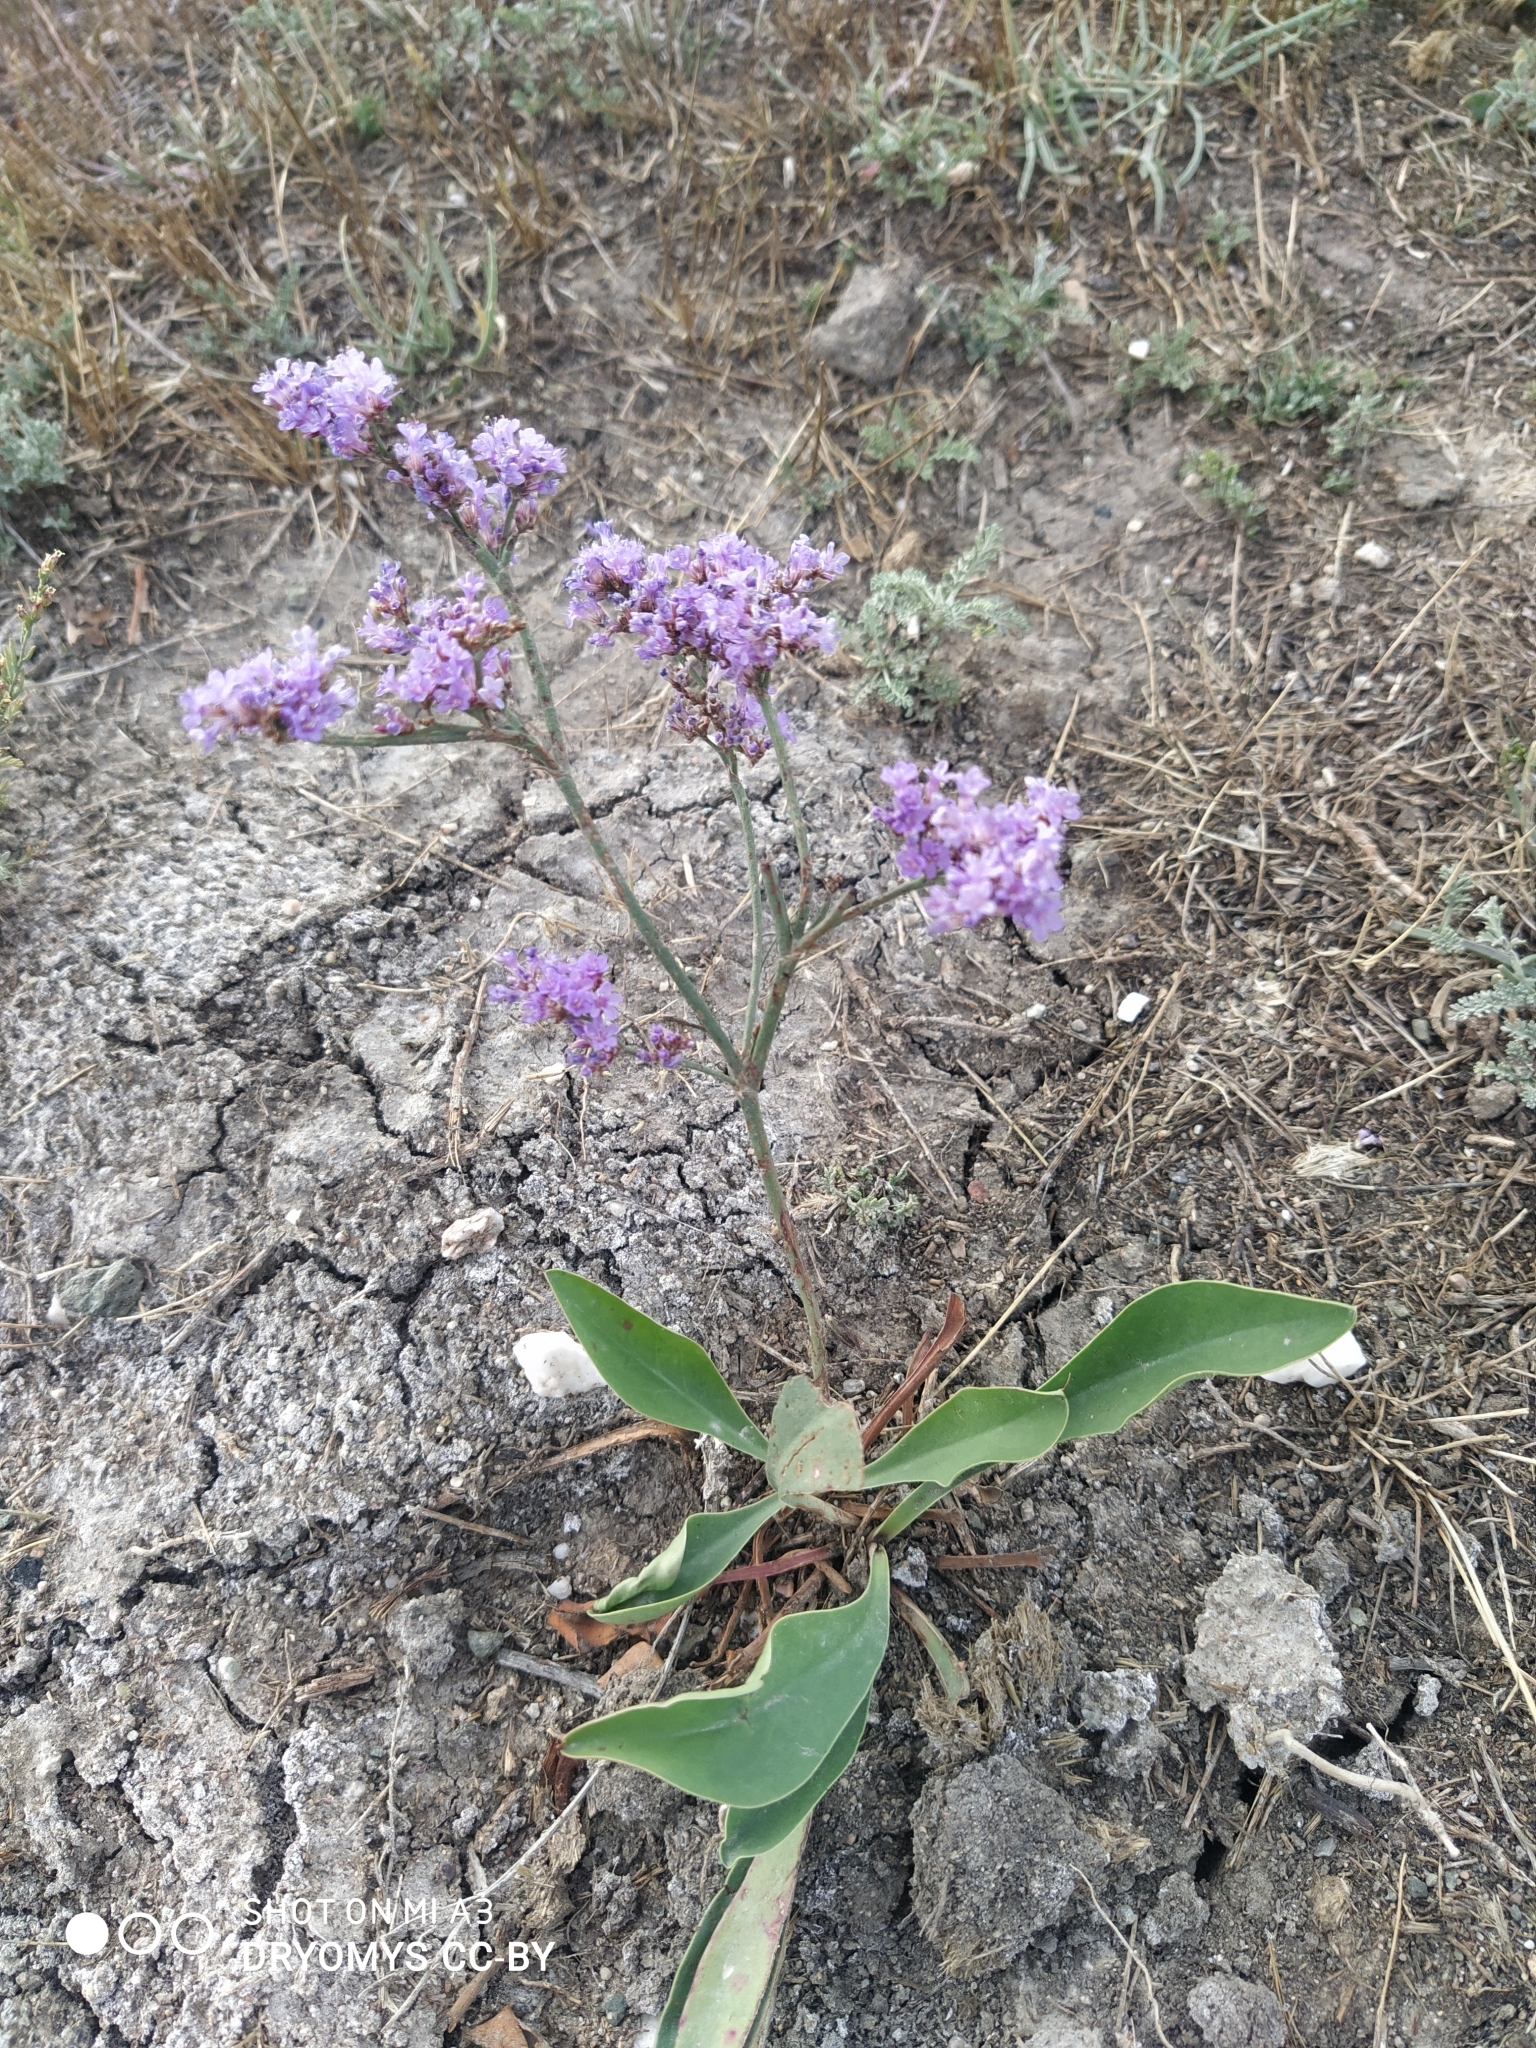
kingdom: Plantae
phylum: Tracheophyta
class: Magnoliopsida
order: Caryophyllales
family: Plumbaginaceae
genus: Limonium
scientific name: Limonium gmelini
